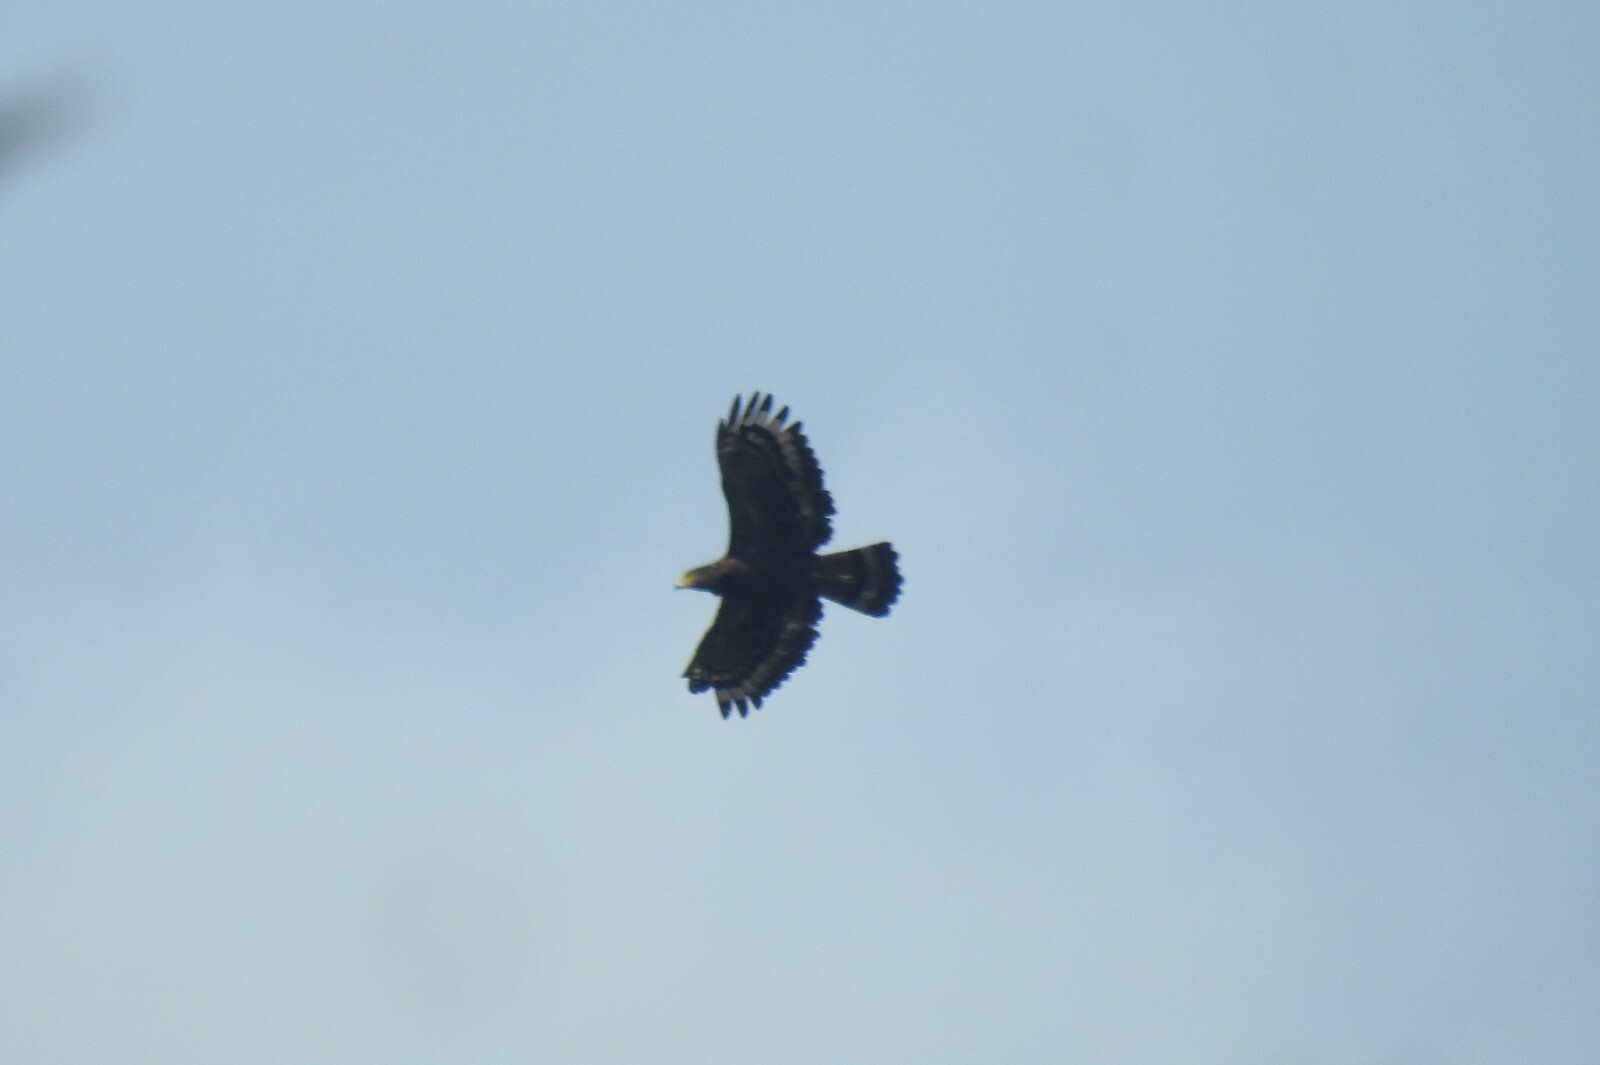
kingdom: Animalia
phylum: Chordata
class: Aves
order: Accipitriformes
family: Accipitridae
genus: Spilornis
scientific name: Spilornis cheela
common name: Crested serpent eagle
